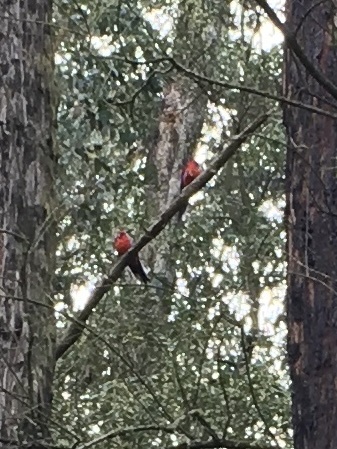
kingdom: Animalia
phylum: Chordata
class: Aves
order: Psittaciformes
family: Psittacidae
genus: Alisterus
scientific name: Alisterus scapularis
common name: Australian king parrot
